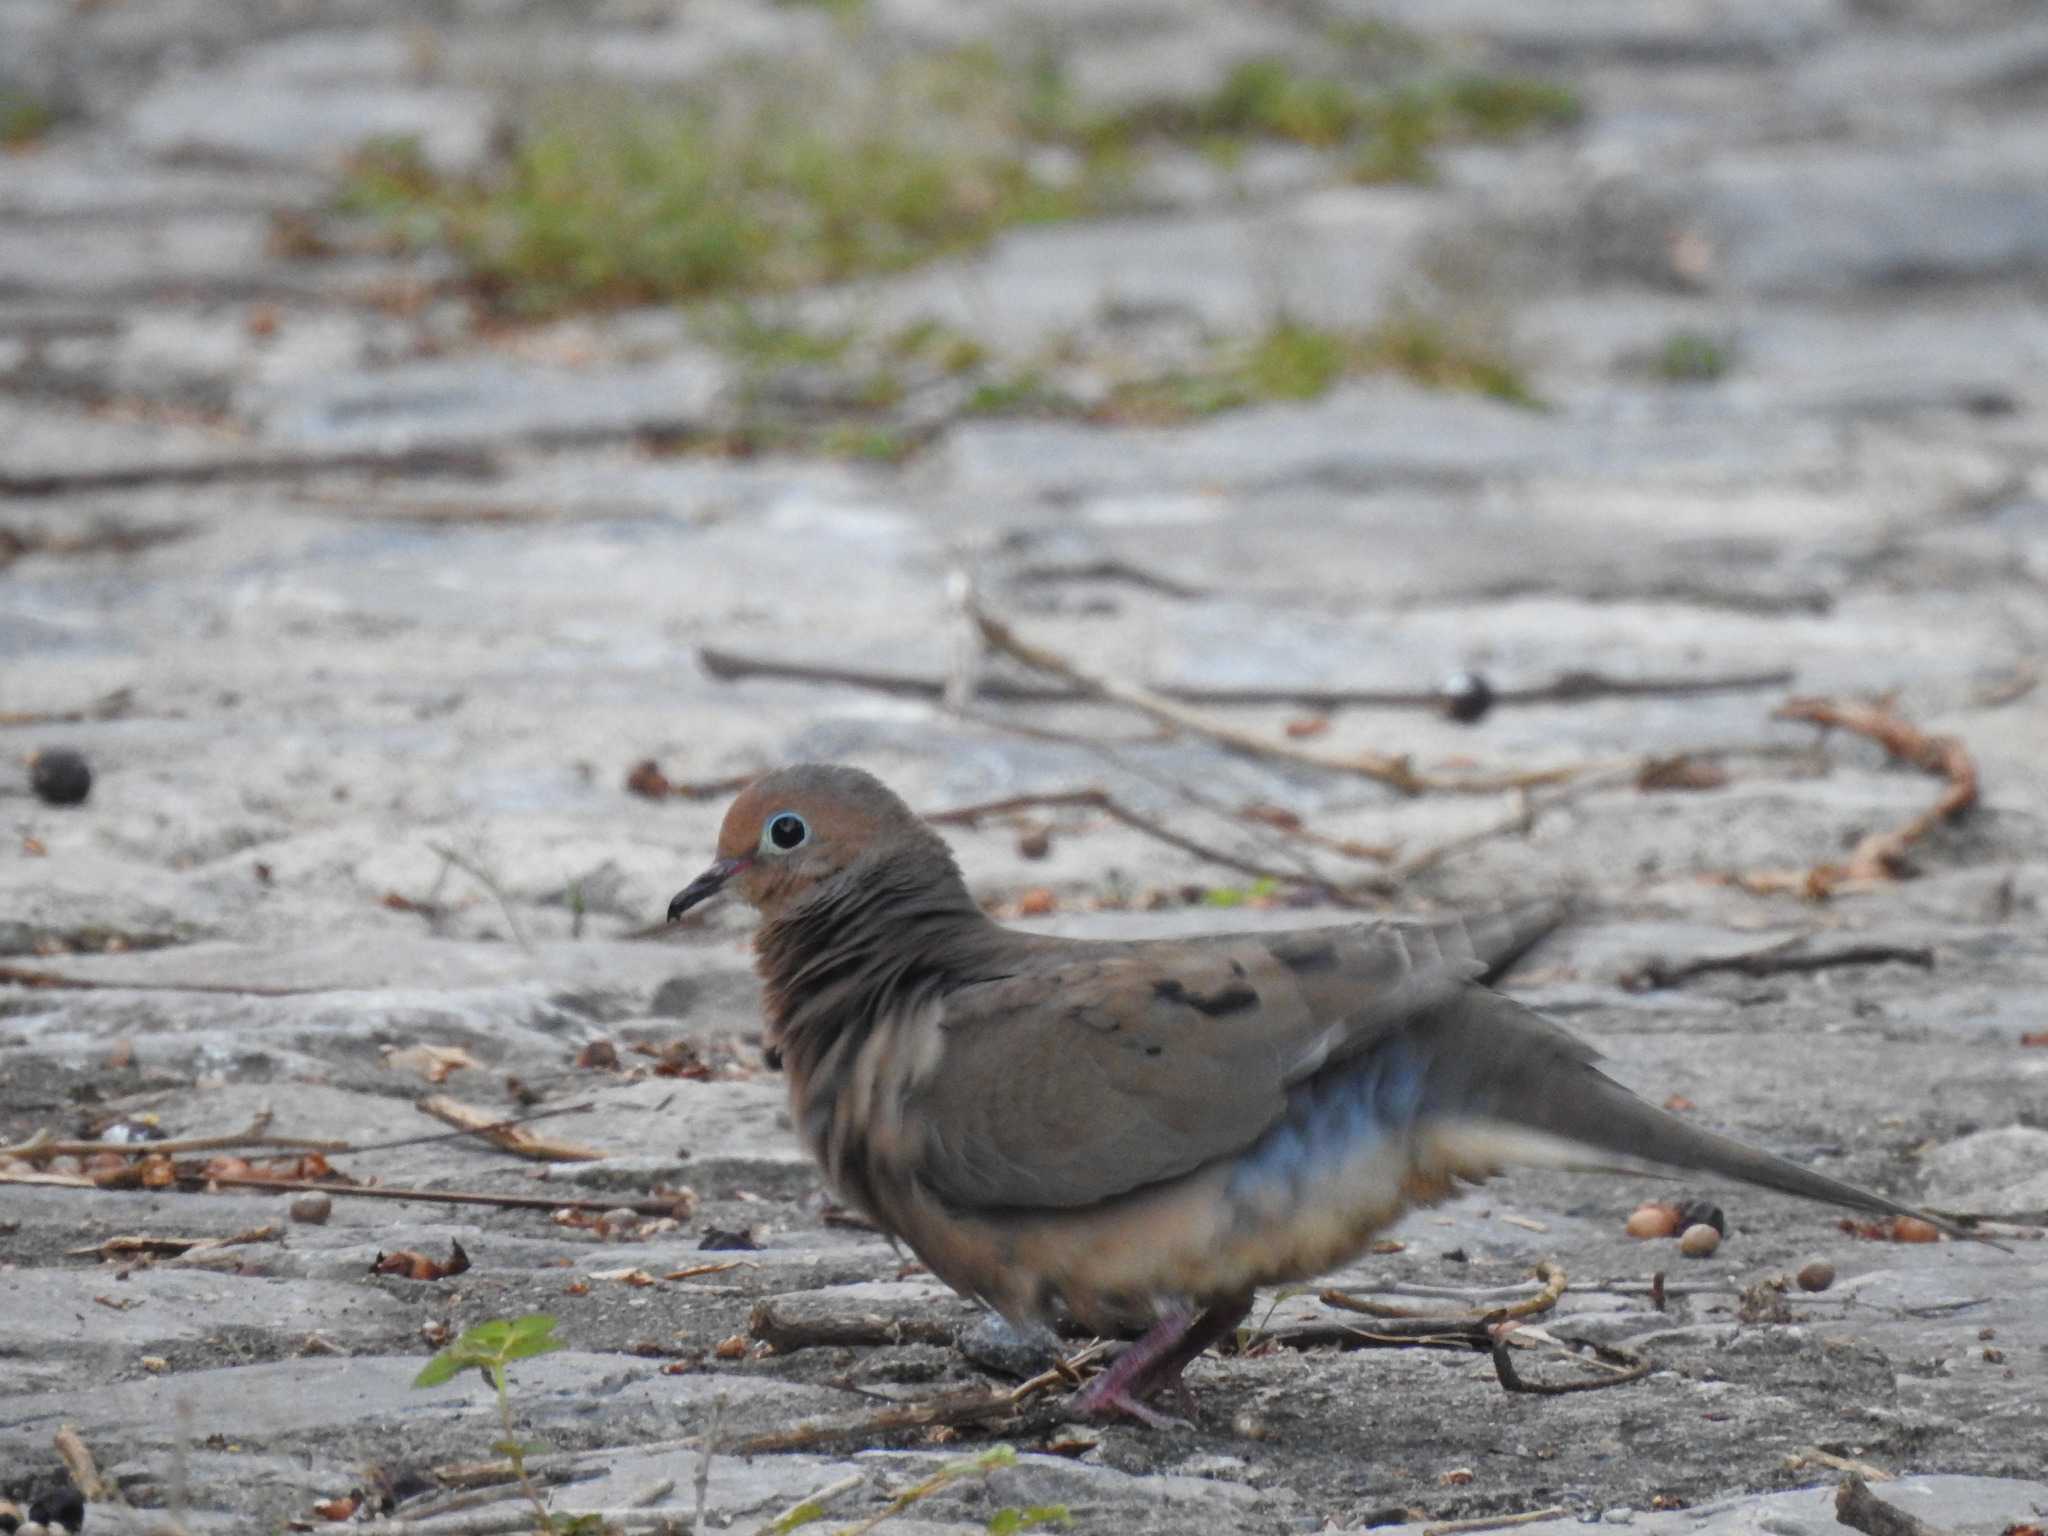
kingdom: Animalia
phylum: Chordata
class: Aves
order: Columbiformes
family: Columbidae
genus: Zenaida
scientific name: Zenaida macroura
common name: Mourning dove
